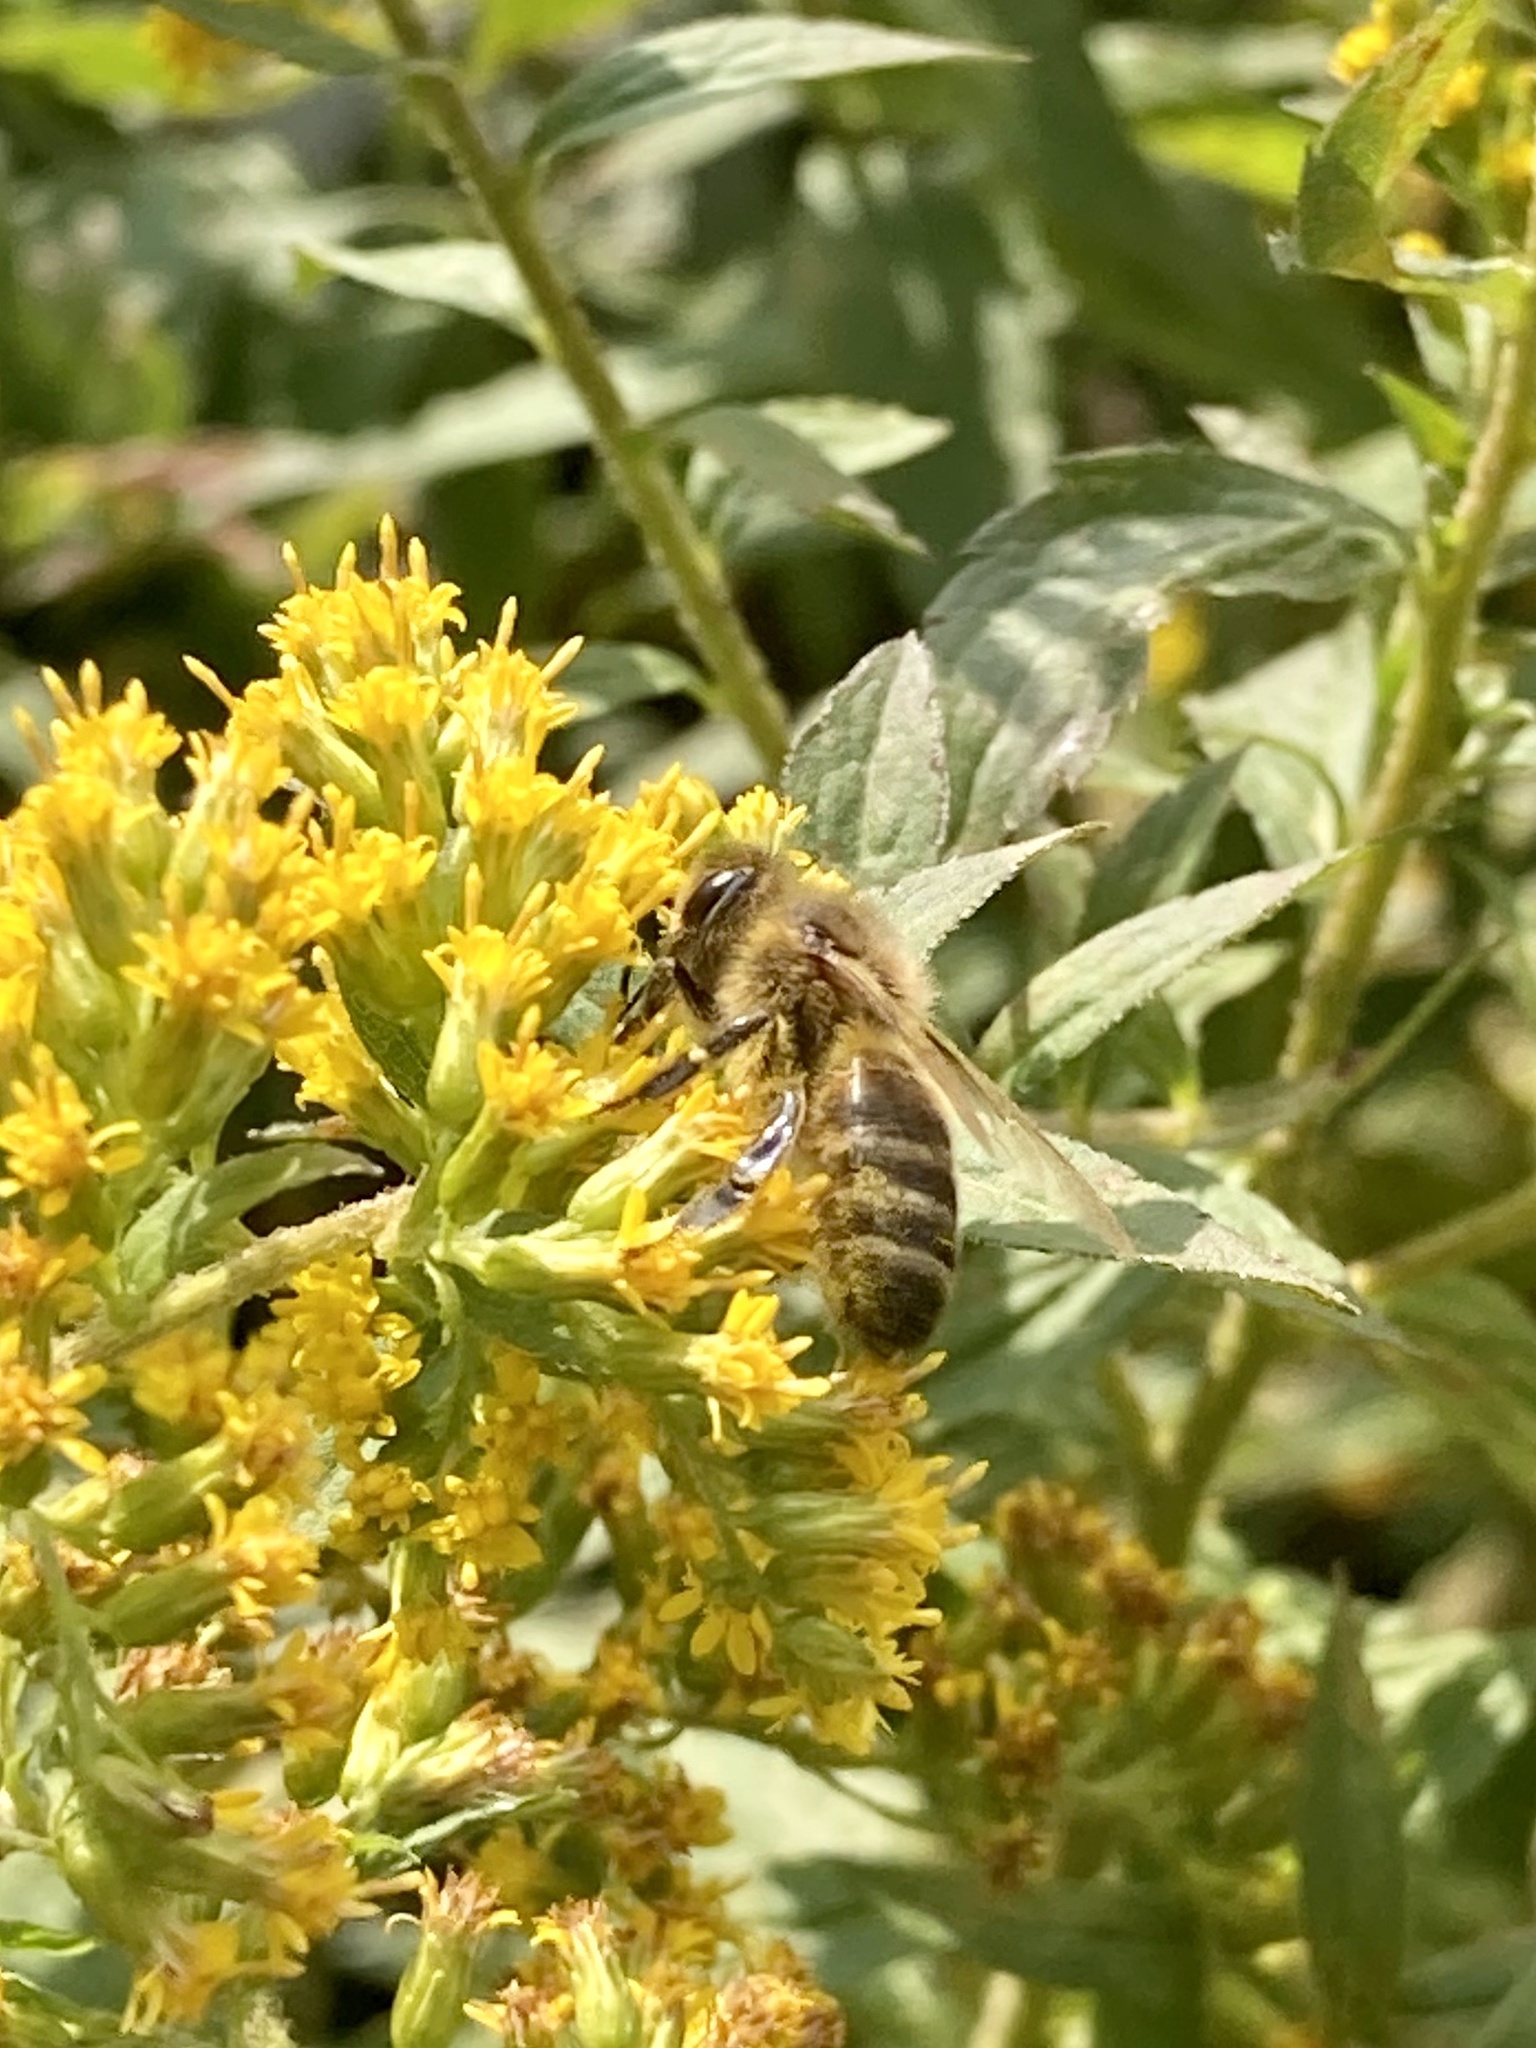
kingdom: Animalia
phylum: Arthropoda
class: Insecta
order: Hymenoptera
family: Apidae
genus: Apis
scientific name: Apis mellifera
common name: Honey bee
